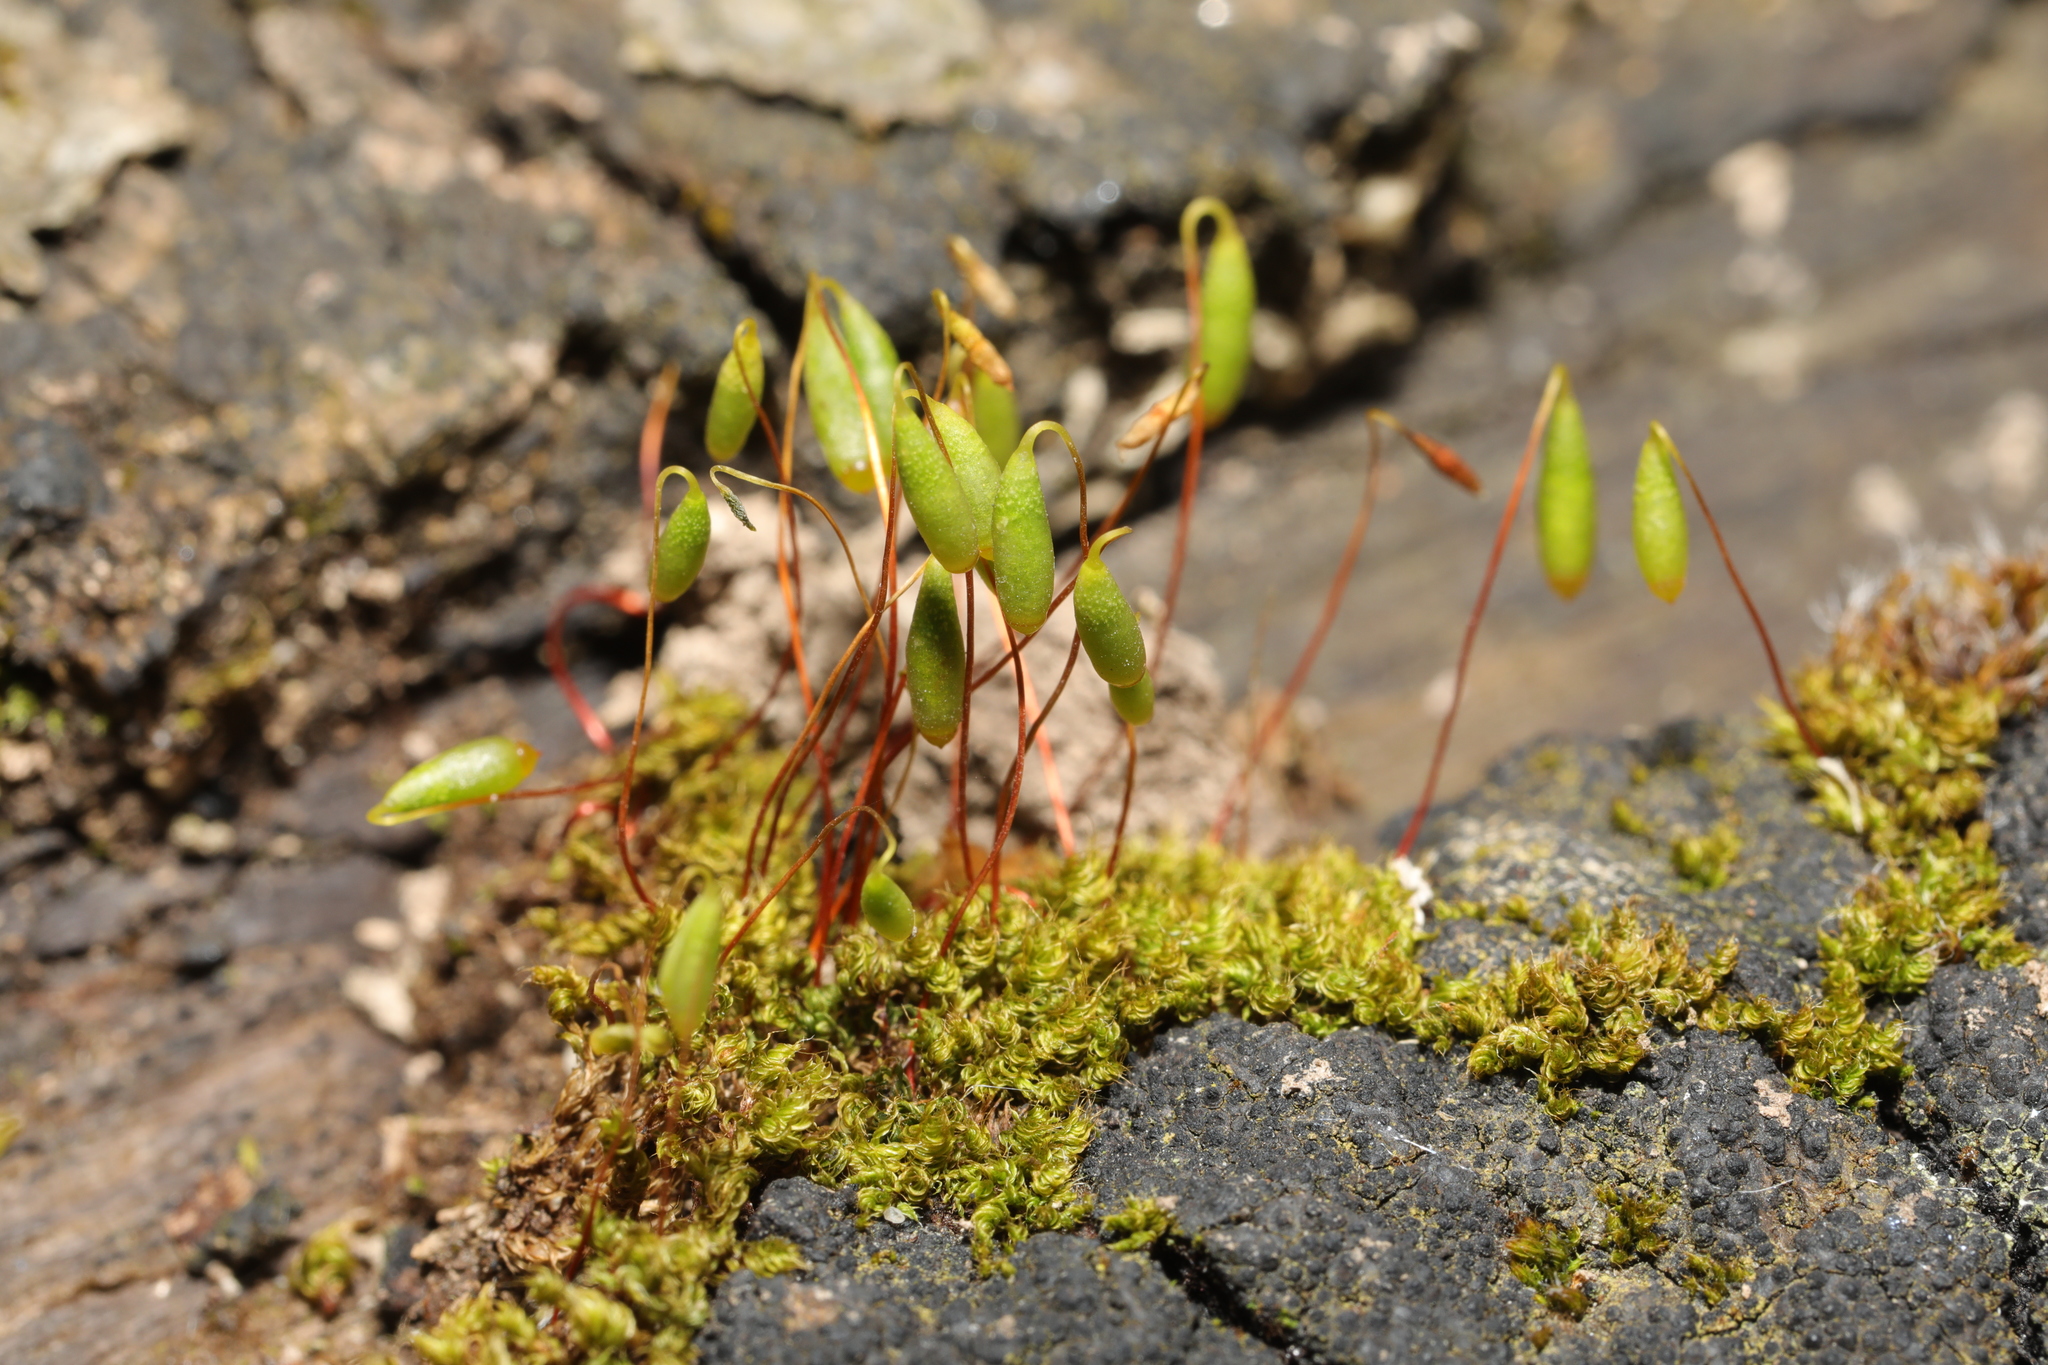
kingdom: Plantae
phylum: Bryophyta
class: Bryopsida
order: Bryales
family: Bryaceae
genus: Rosulabryum
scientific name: Rosulabryum capillare
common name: Capillary thread-moss
